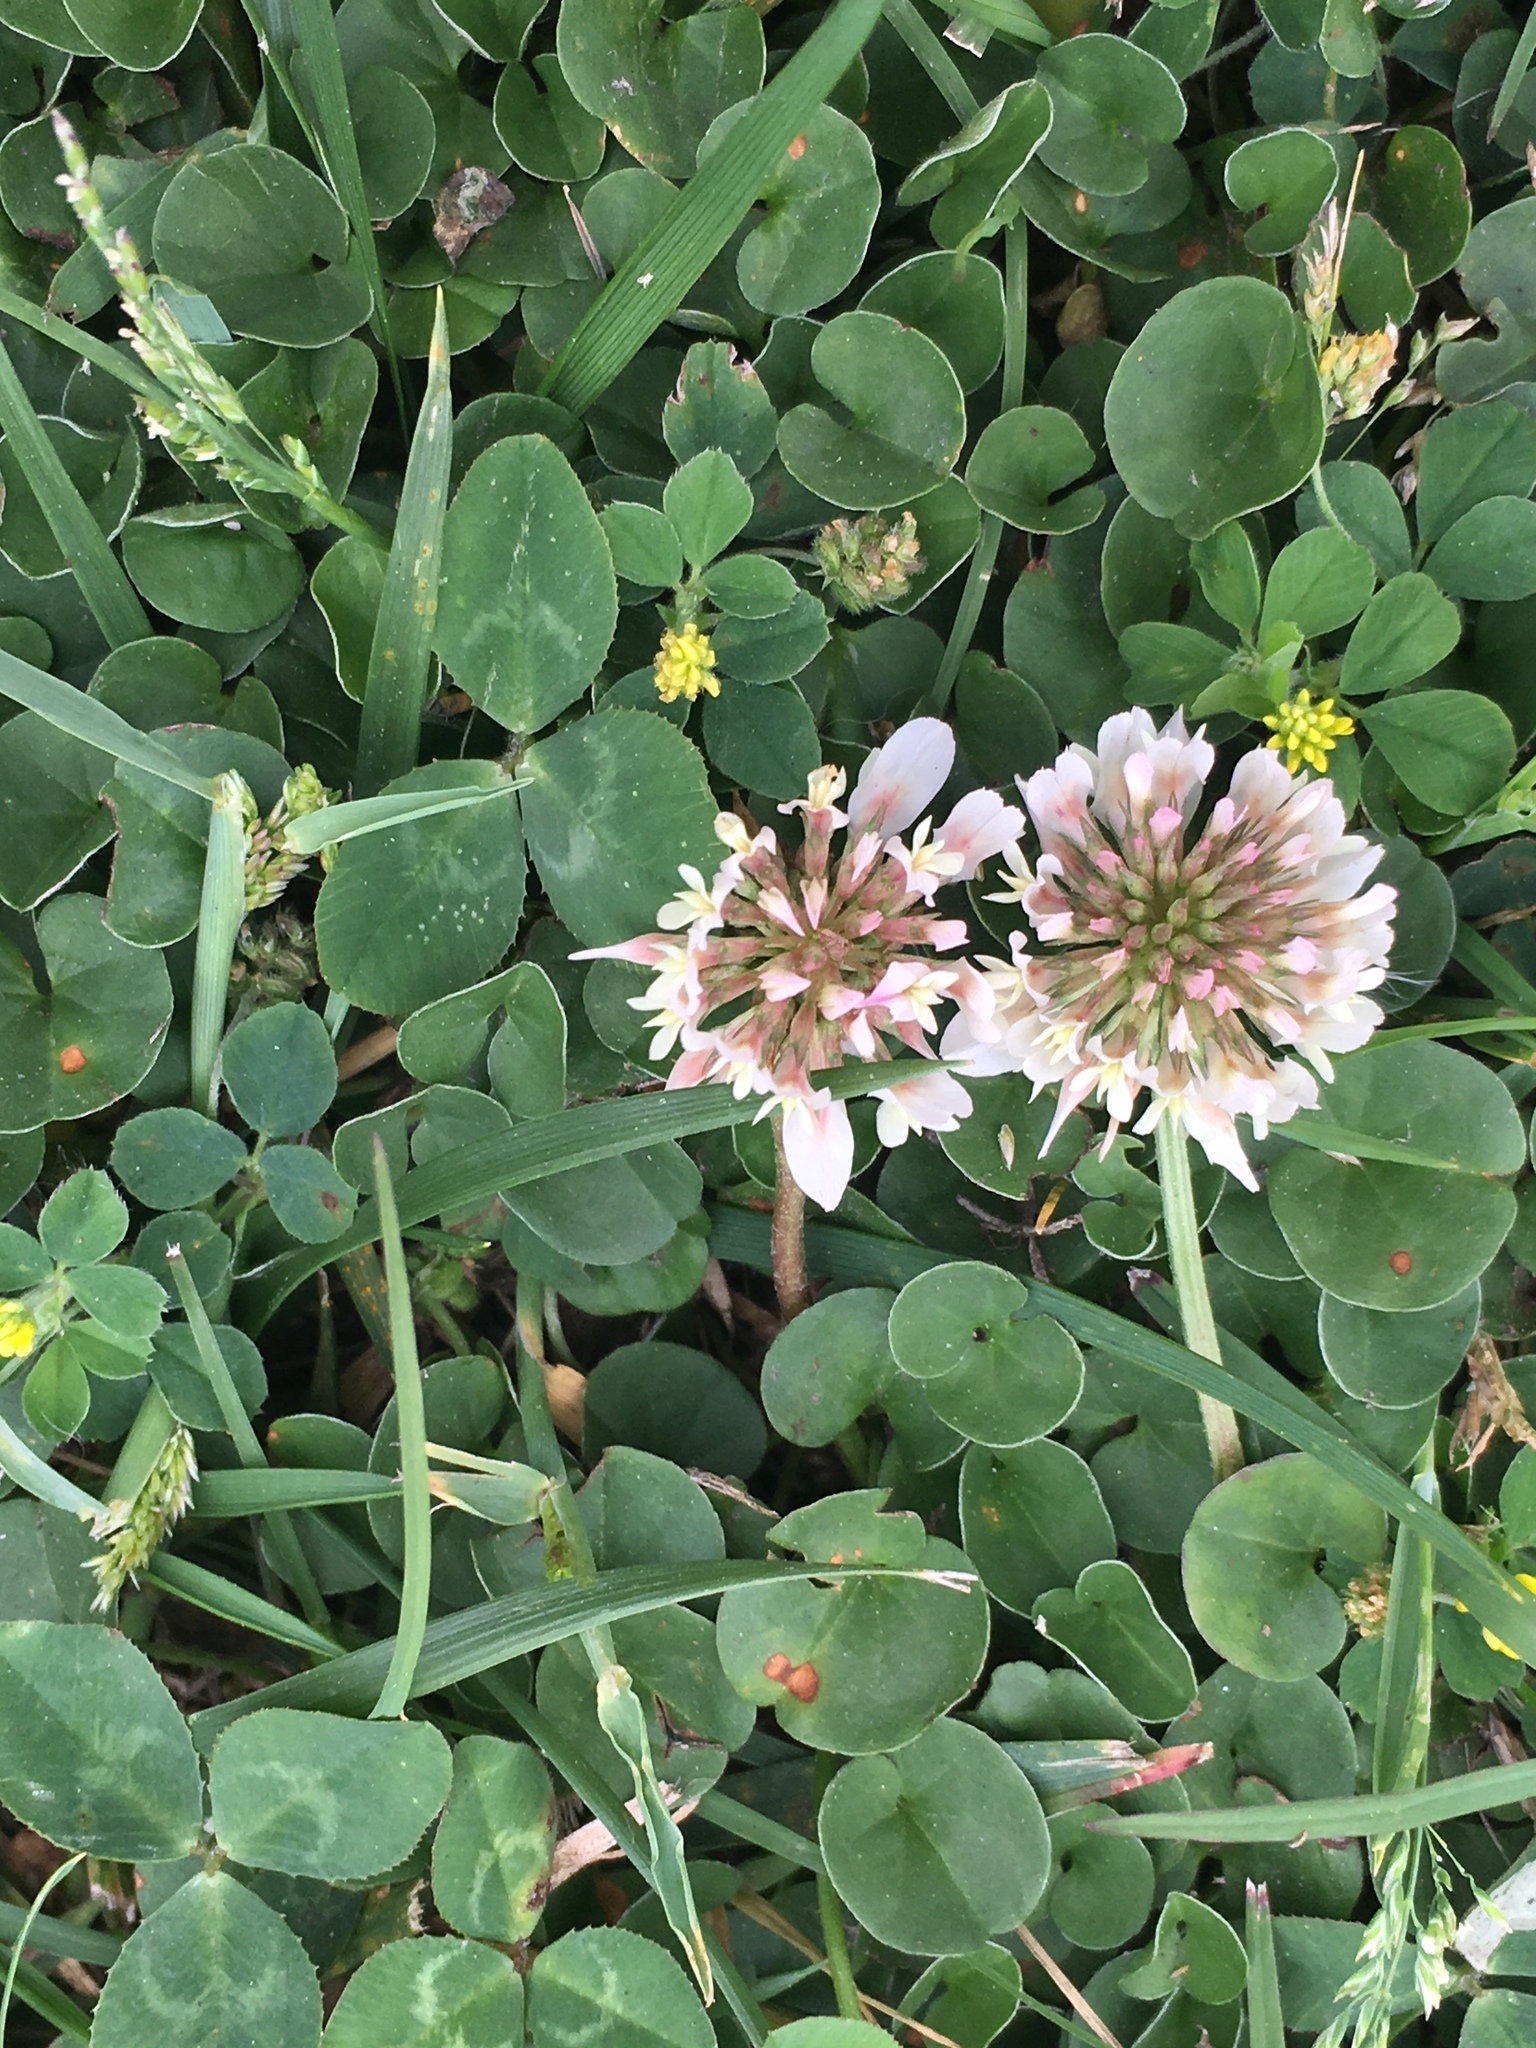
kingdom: Plantae
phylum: Tracheophyta
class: Magnoliopsida
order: Fabales
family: Fabaceae
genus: Trifolium
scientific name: Trifolium repens
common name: White clover
